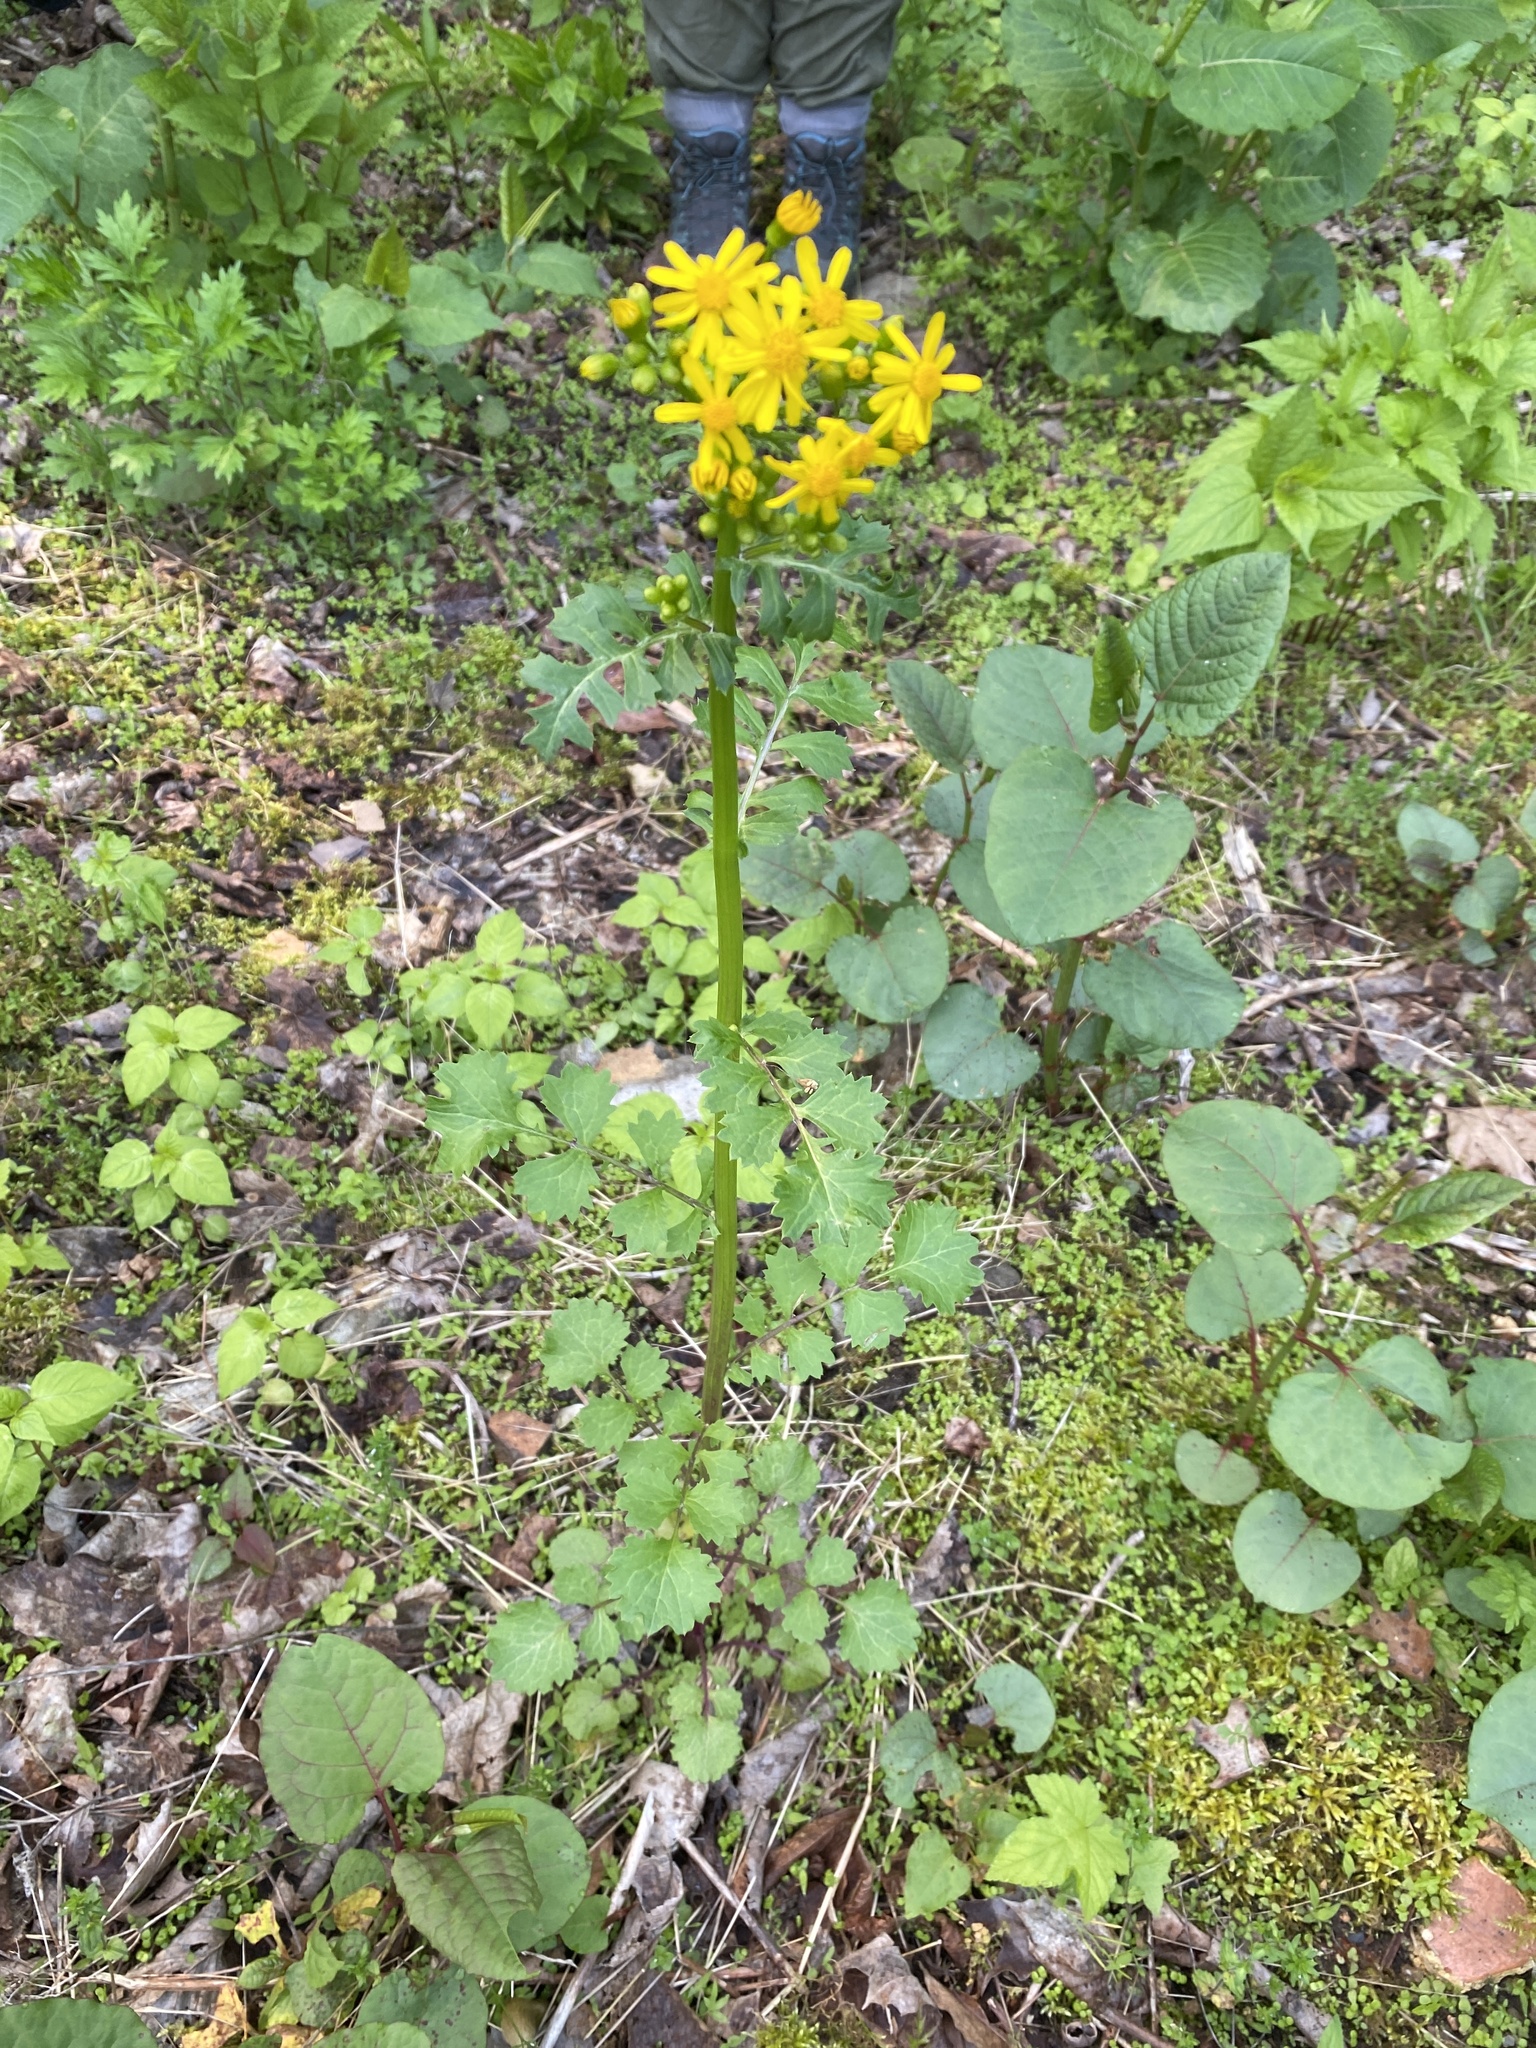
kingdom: Plantae
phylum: Tracheophyta
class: Magnoliopsida
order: Asterales
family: Asteraceae
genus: Packera
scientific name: Packera glabella
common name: Butterweed
